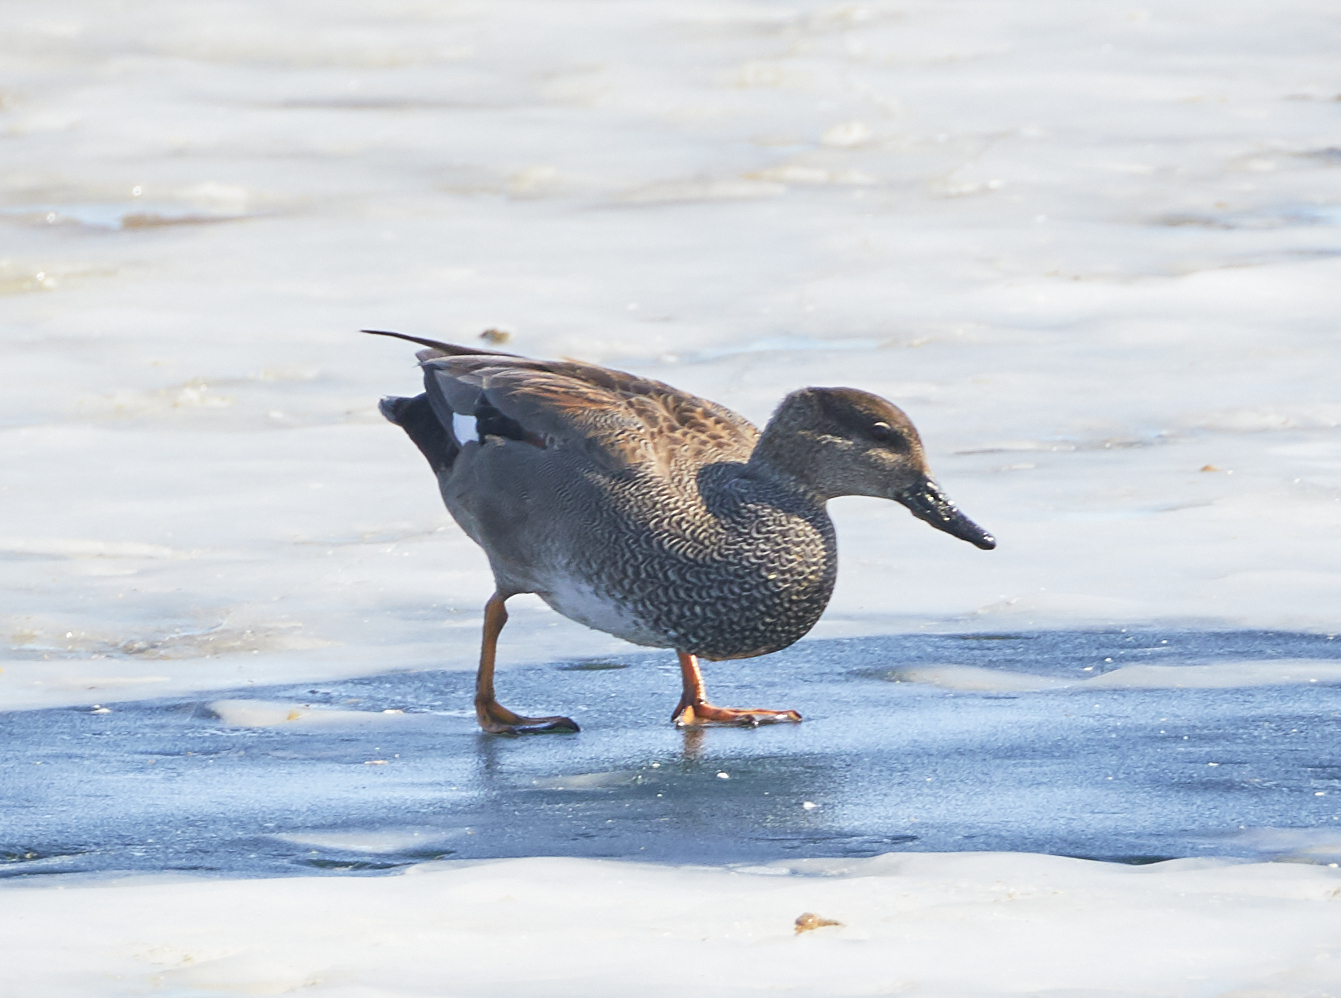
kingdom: Animalia
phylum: Chordata
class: Aves
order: Anseriformes
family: Anatidae
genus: Mareca
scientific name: Mareca strepera
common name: Gadwall
